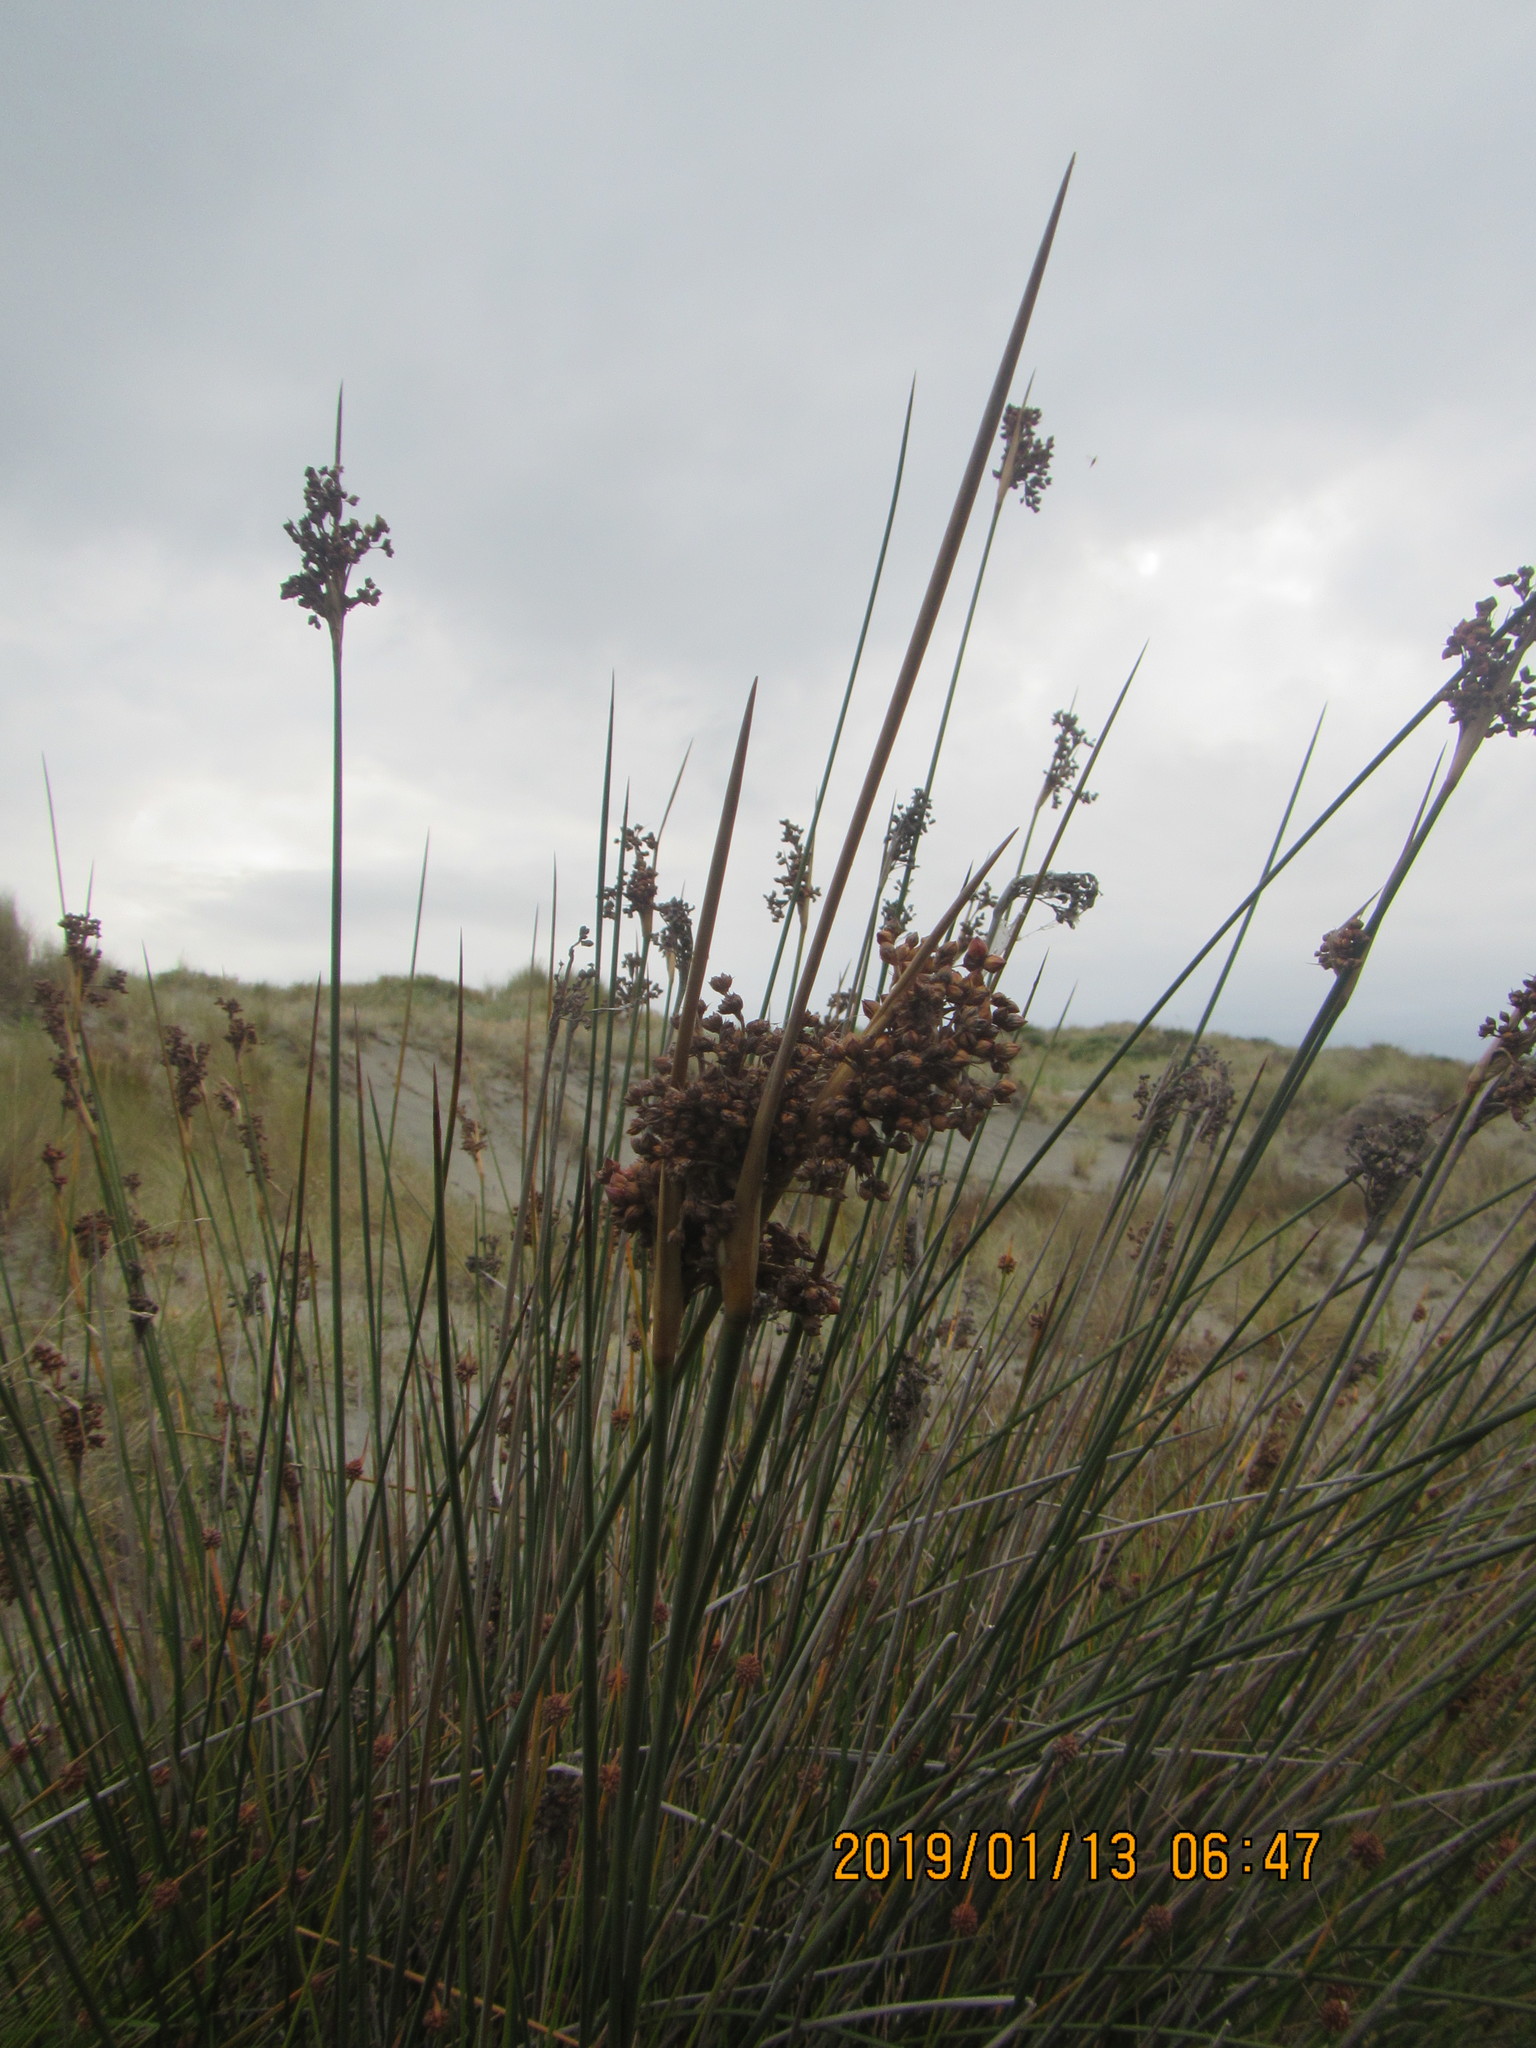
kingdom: Plantae
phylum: Tracheophyta
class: Liliopsida
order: Poales
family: Juncaceae
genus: Juncus
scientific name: Juncus acutus
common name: Sharp rush
